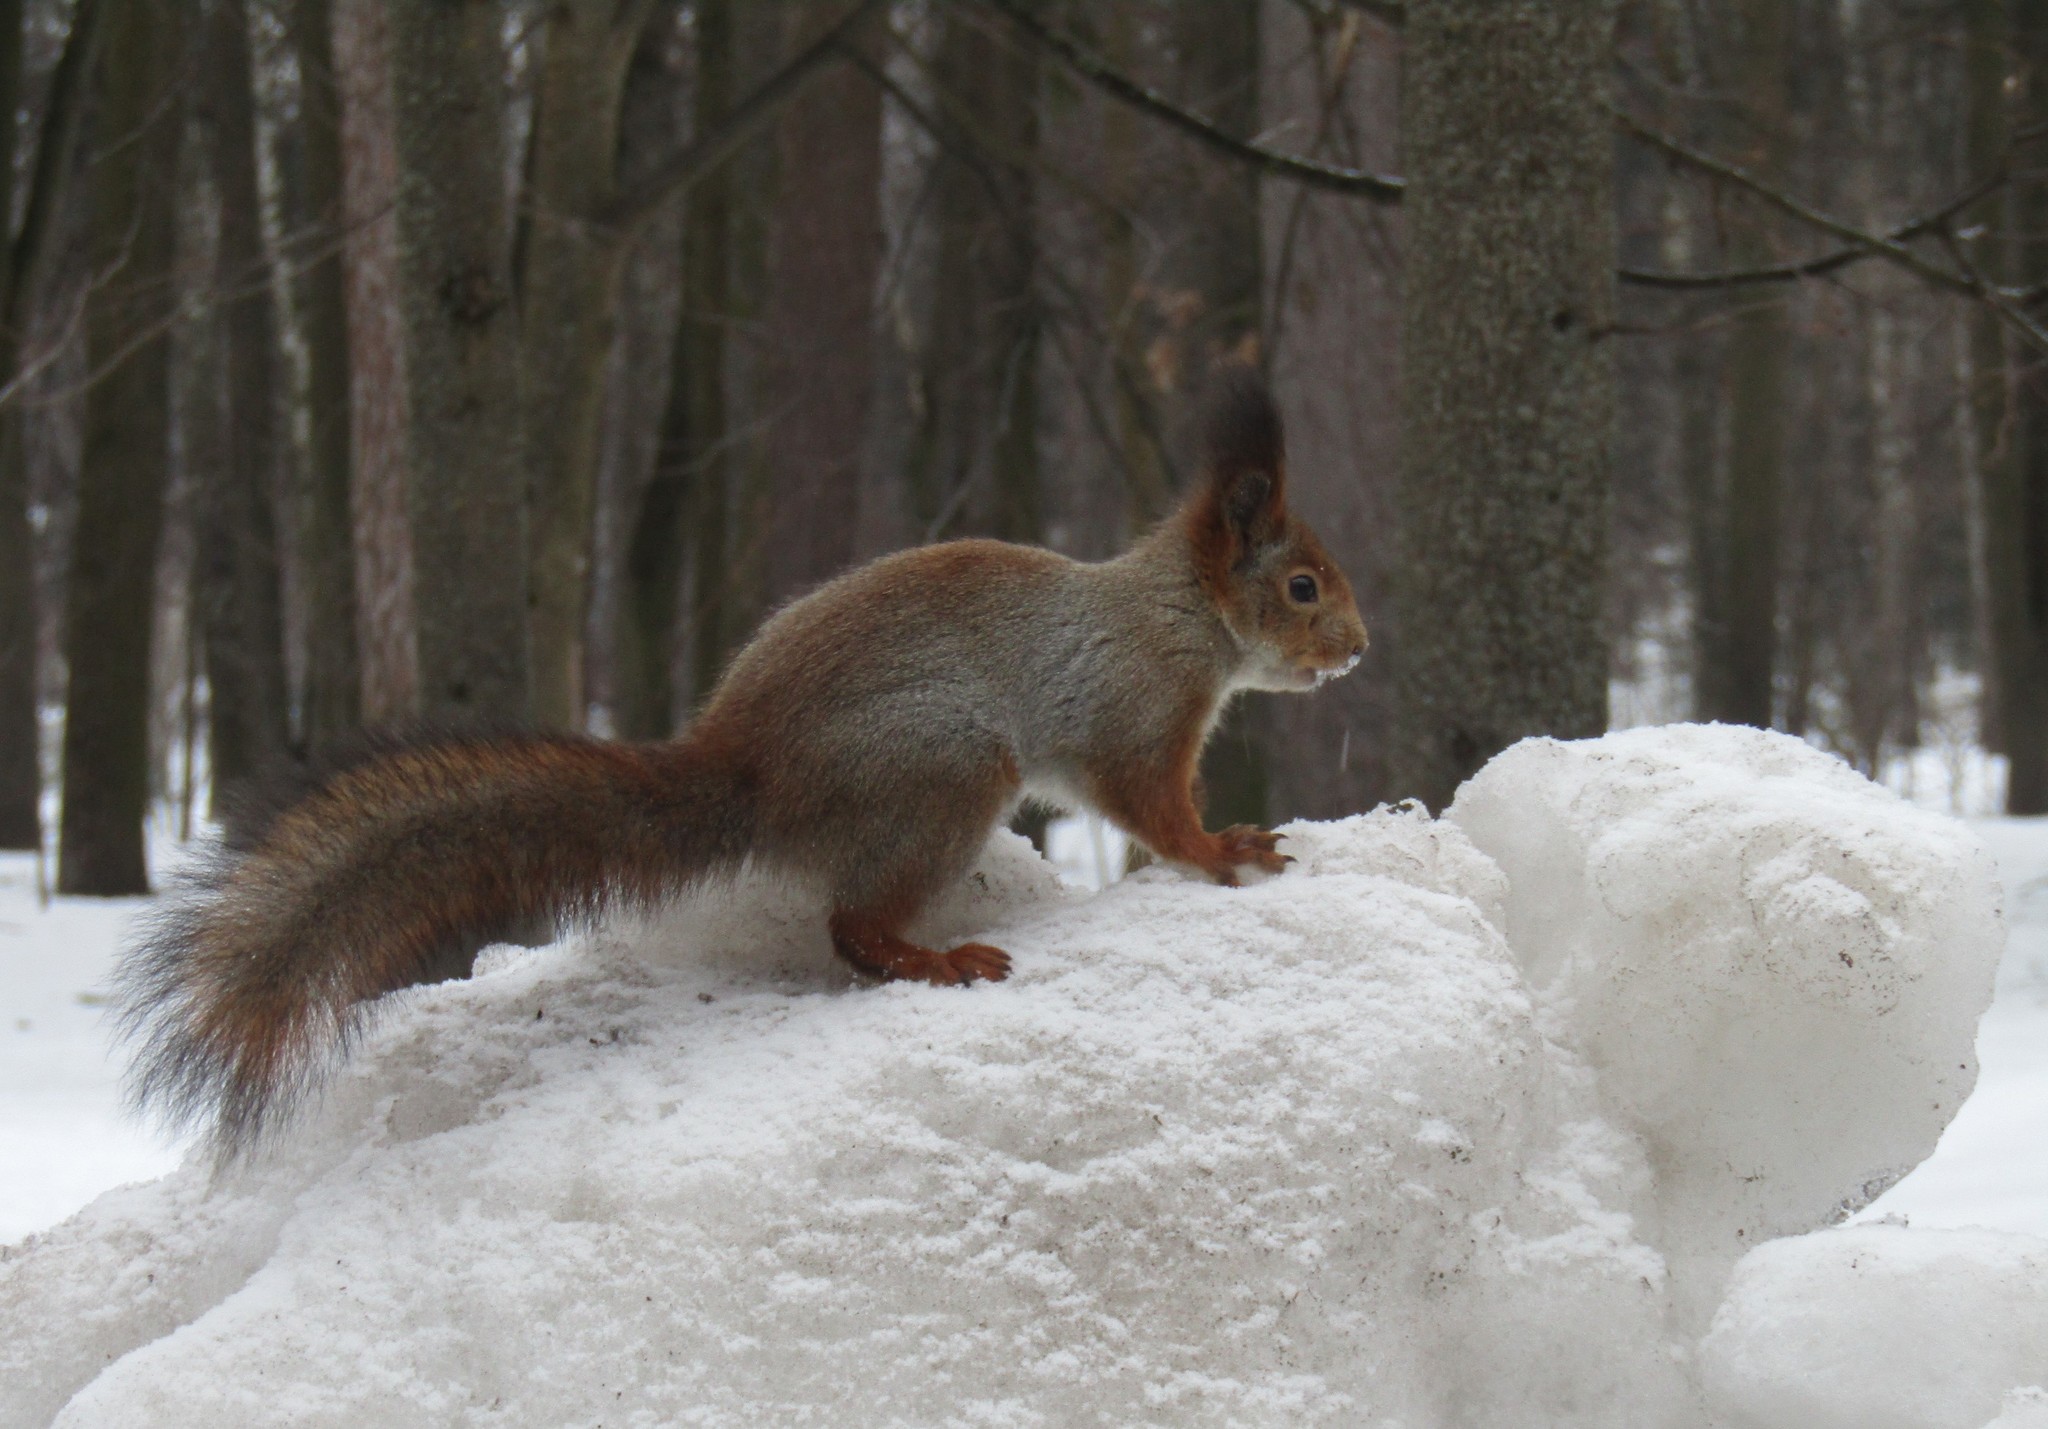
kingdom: Animalia
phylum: Chordata
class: Mammalia
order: Rodentia
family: Sciuridae
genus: Sciurus
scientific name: Sciurus vulgaris
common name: Eurasian red squirrel
